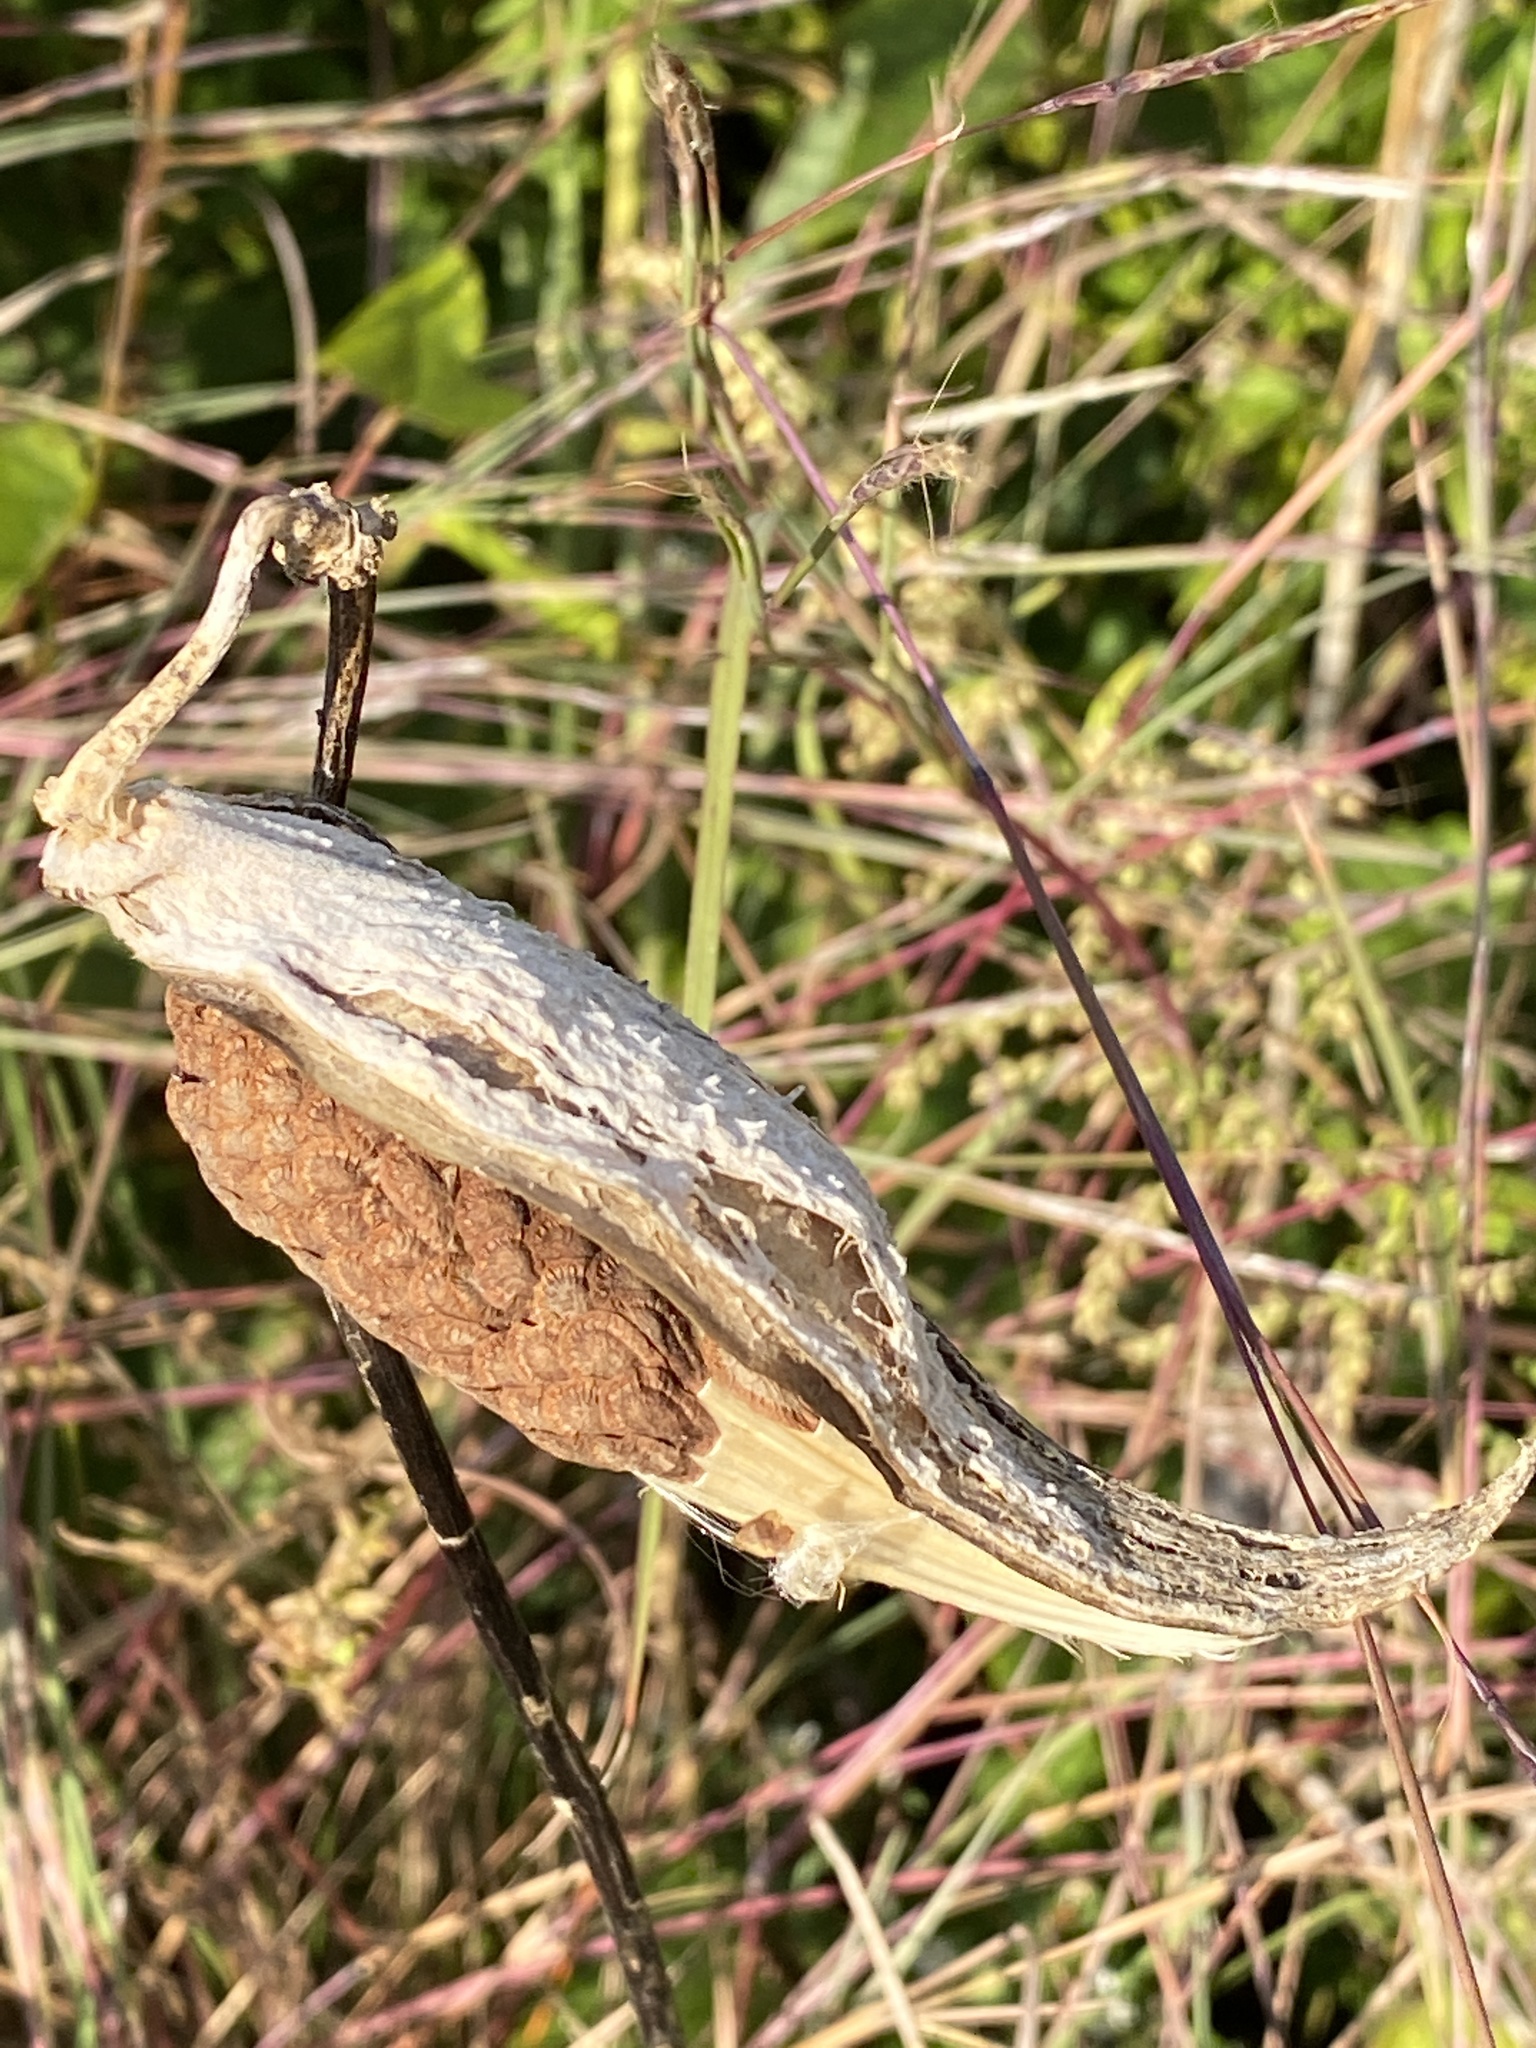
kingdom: Plantae
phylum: Tracheophyta
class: Magnoliopsida
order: Gentianales
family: Apocynaceae
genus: Asclepias
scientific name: Asclepias syriaca
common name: Common milkweed
